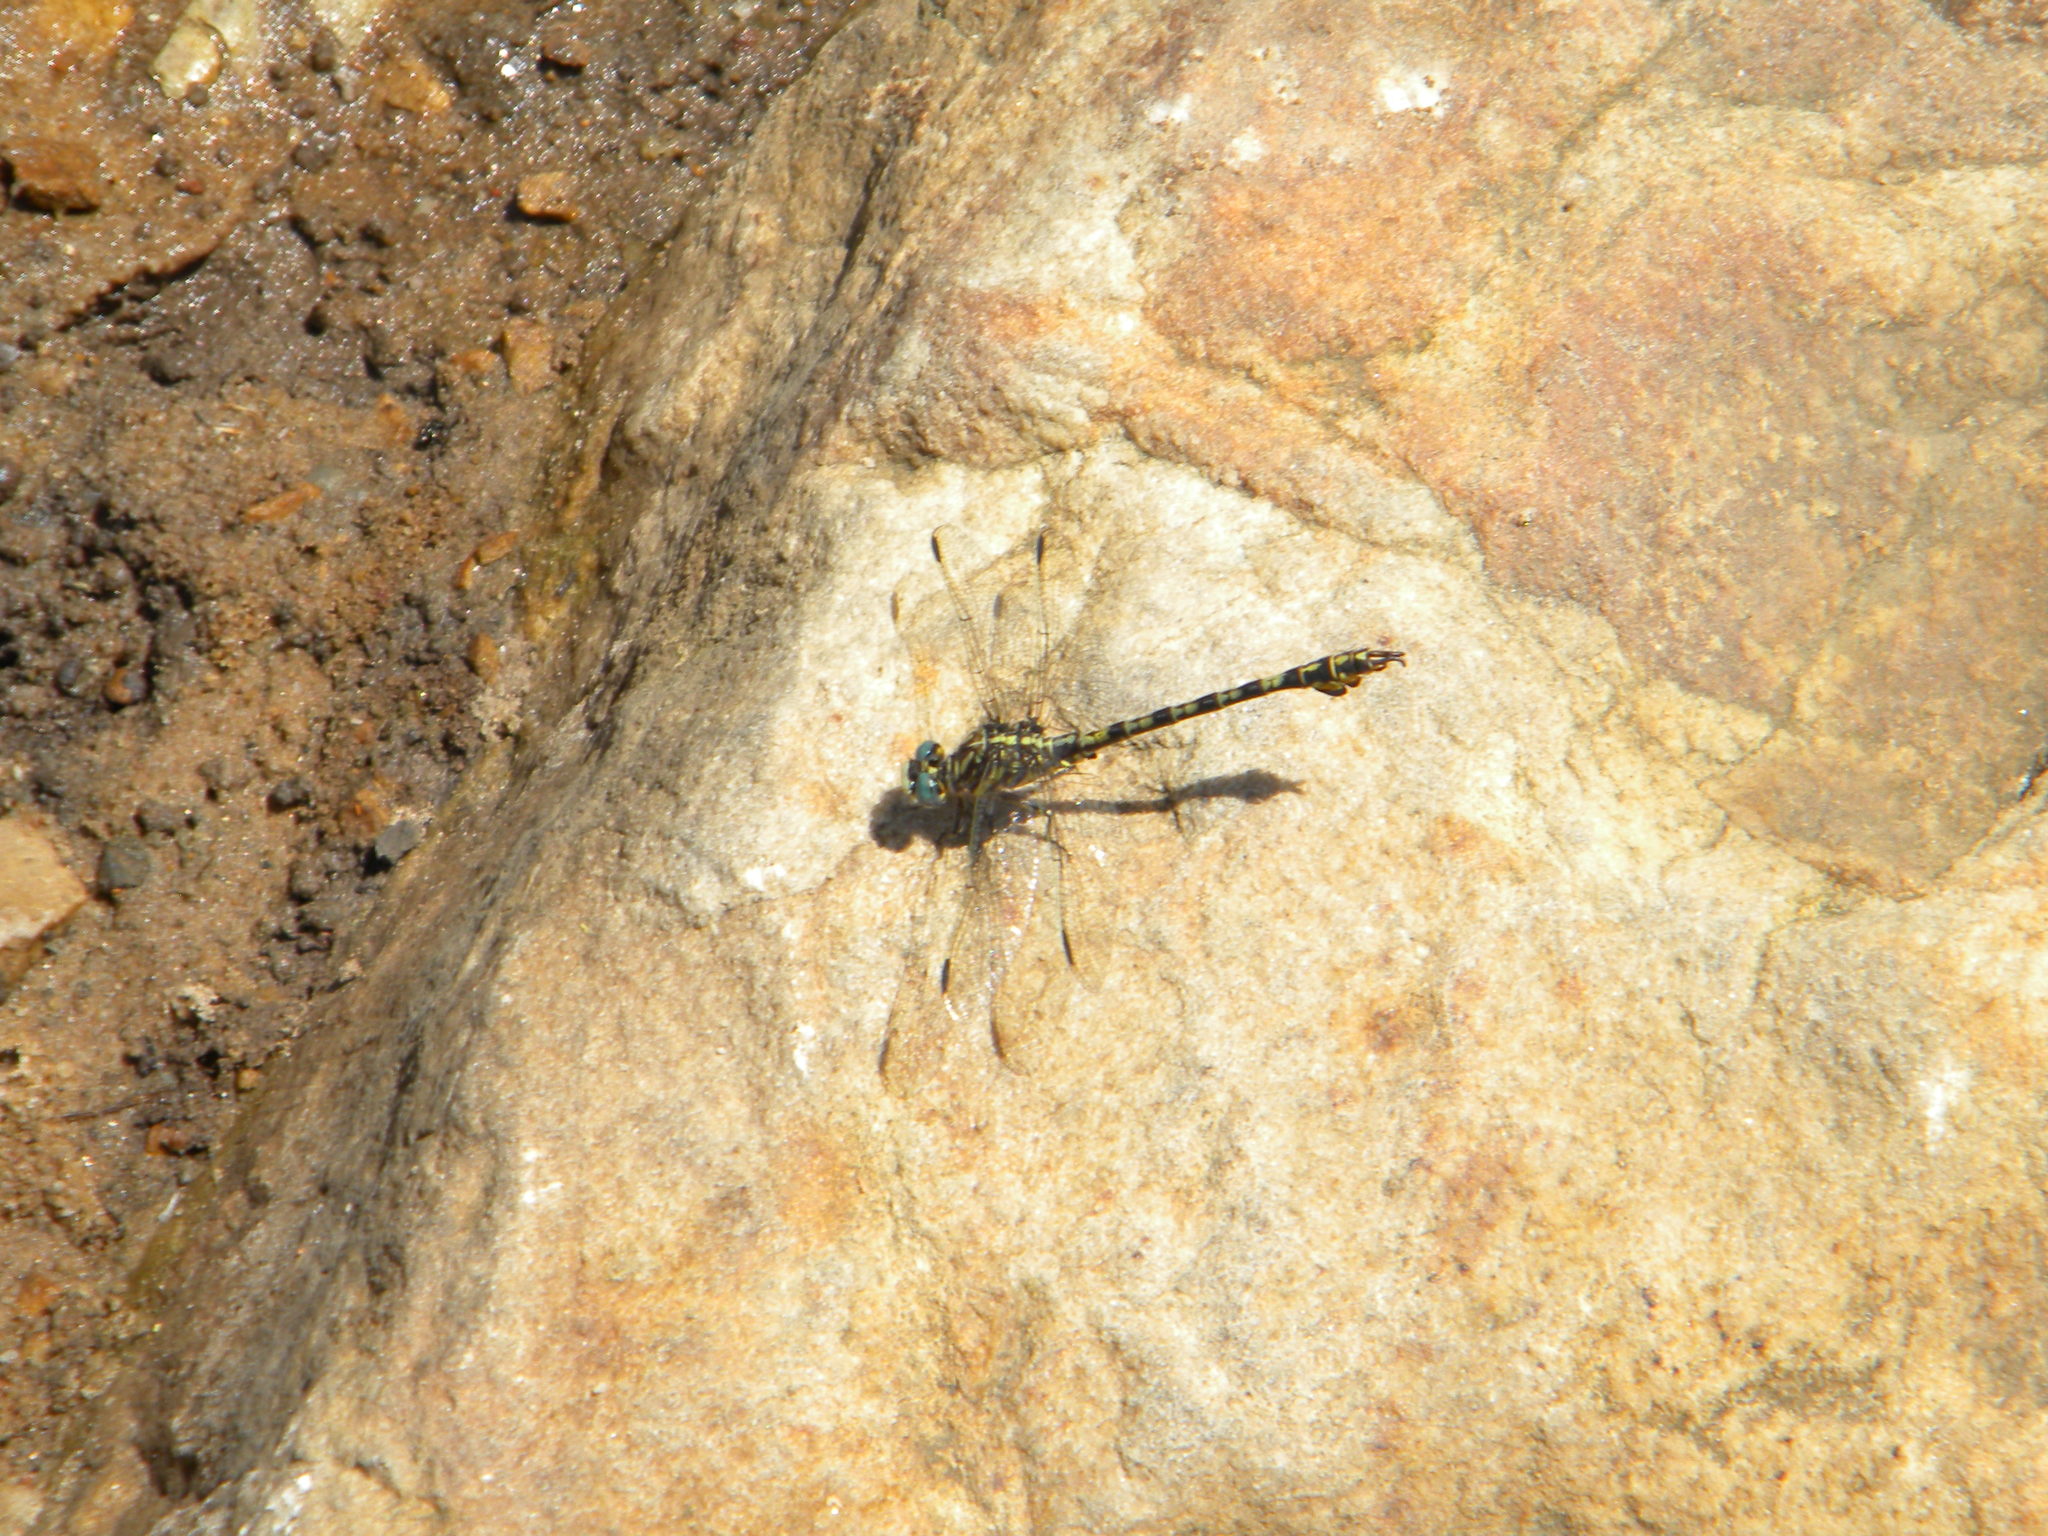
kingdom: Animalia
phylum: Arthropoda
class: Insecta
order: Odonata
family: Gomphidae
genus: Paragomphus
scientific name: Paragomphus cognatus
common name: Boulder hooktail
